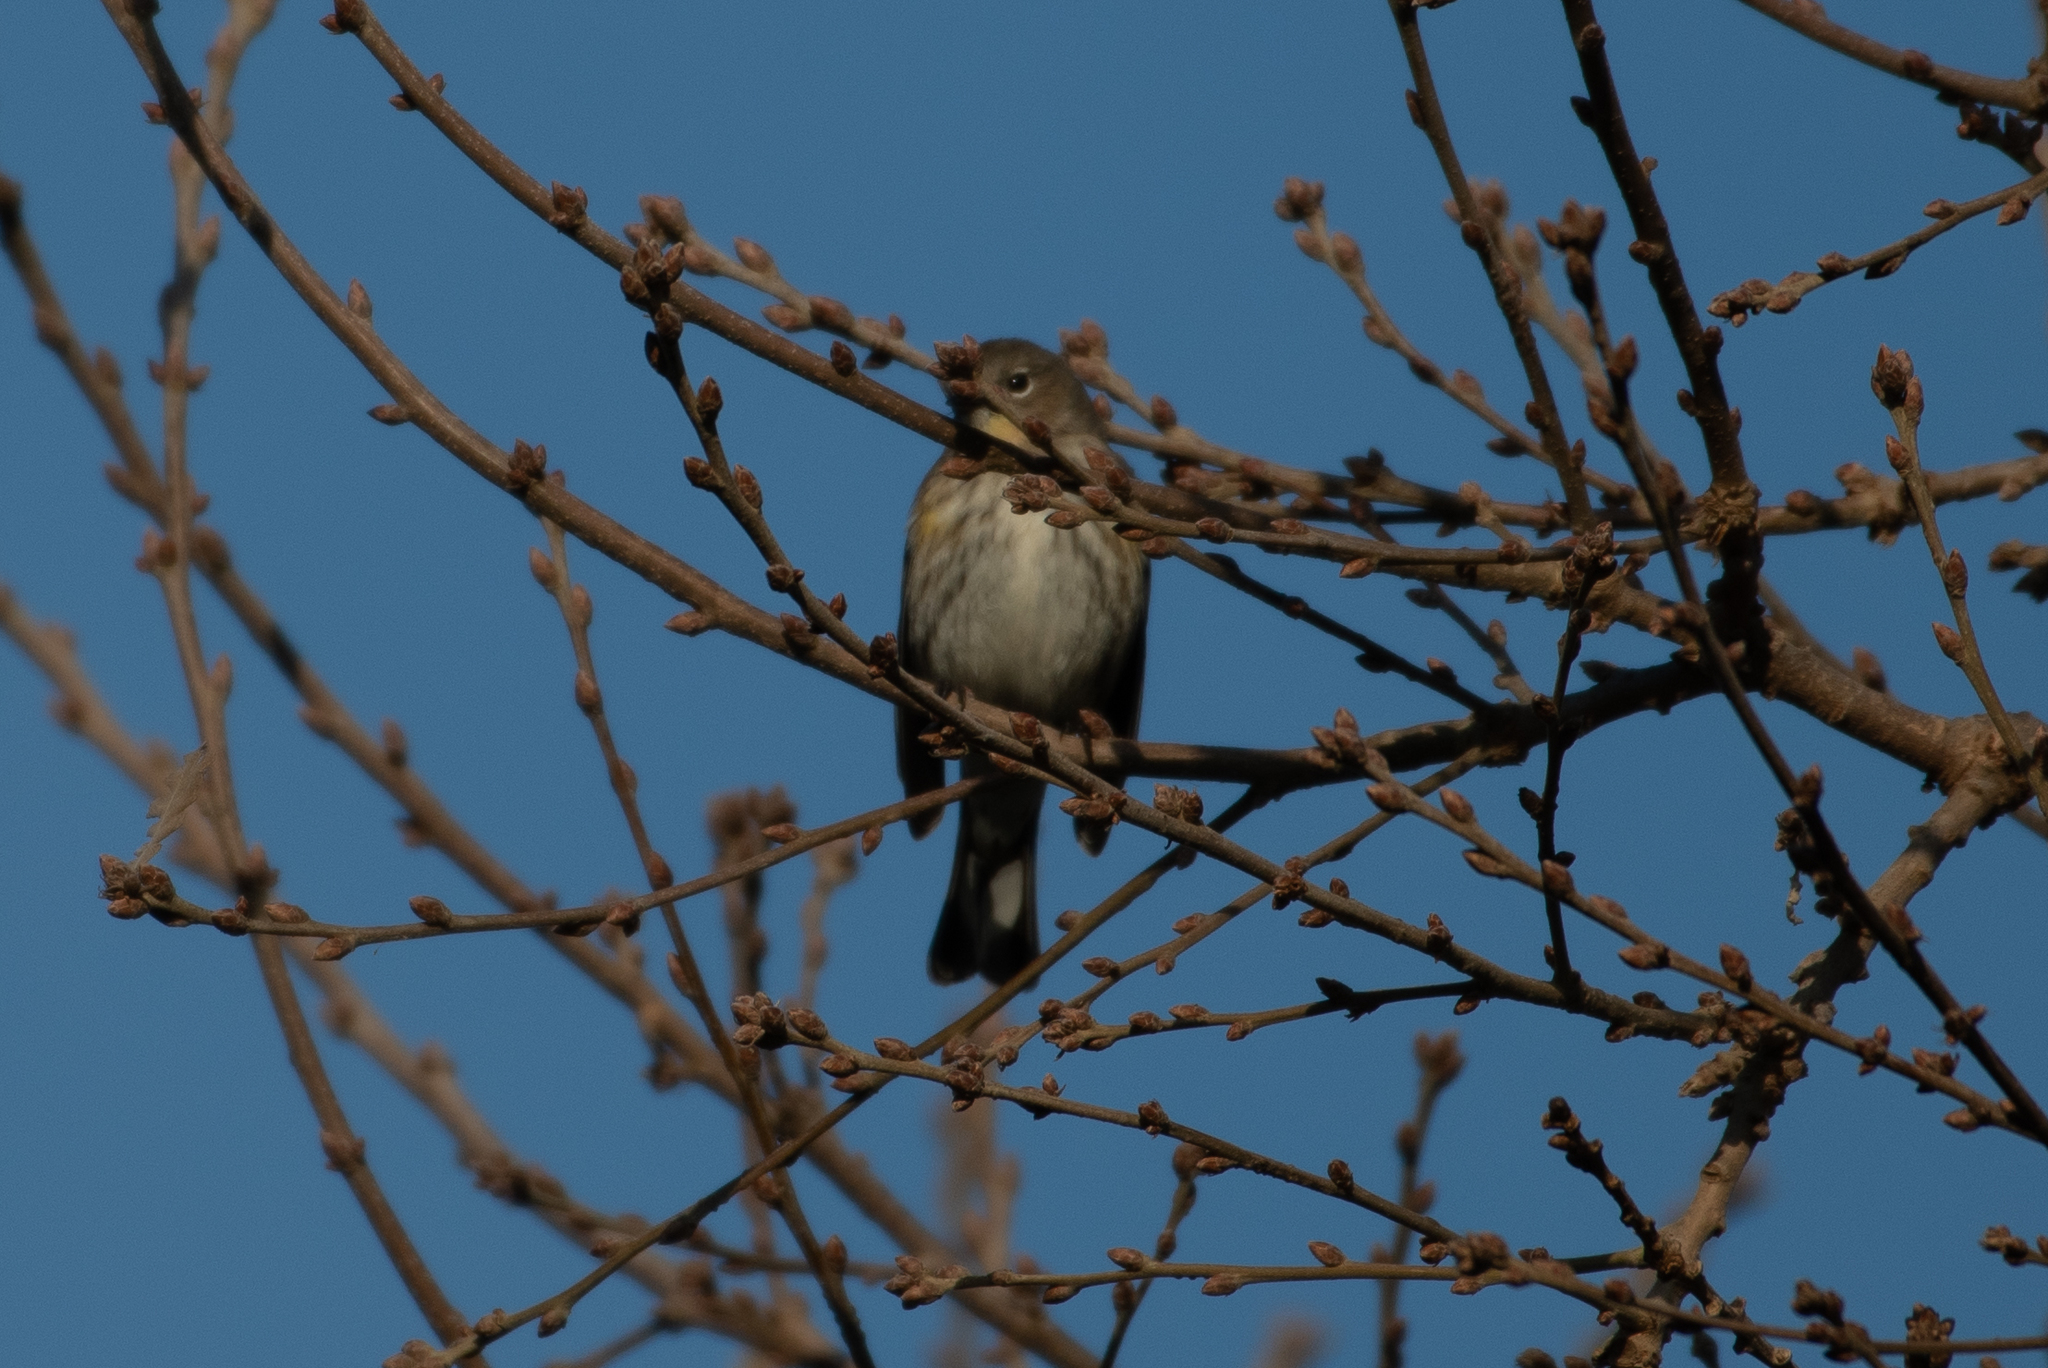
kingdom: Animalia
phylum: Chordata
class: Aves
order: Passeriformes
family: Parulidae
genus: Setophaga
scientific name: Setophaga coronata
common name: Myrtle warbler
